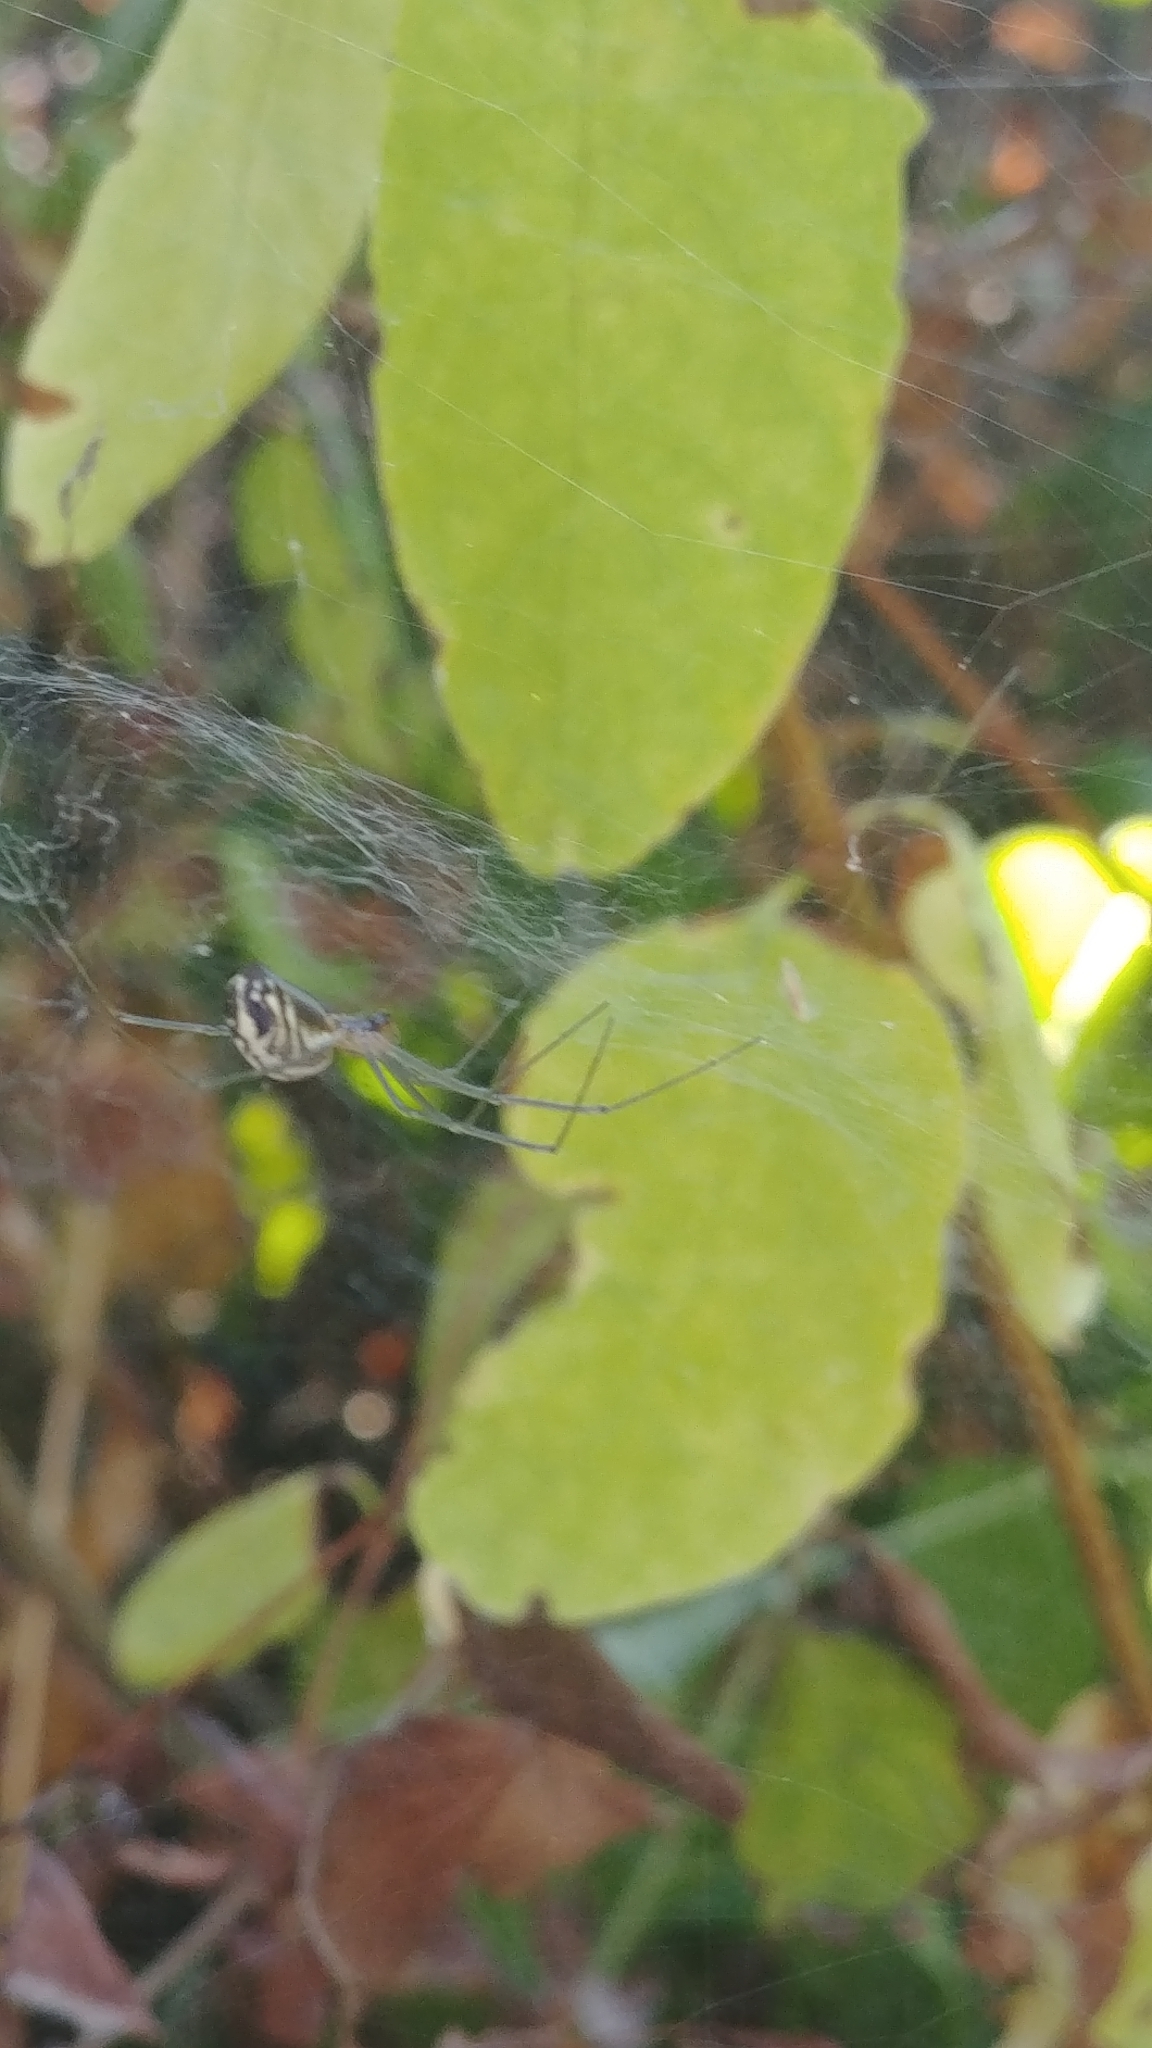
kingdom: Animalia
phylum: Arthropoda
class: Arachnida
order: Araneae
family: Linyphiidae
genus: Neriene
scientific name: Neriene litigiosa
